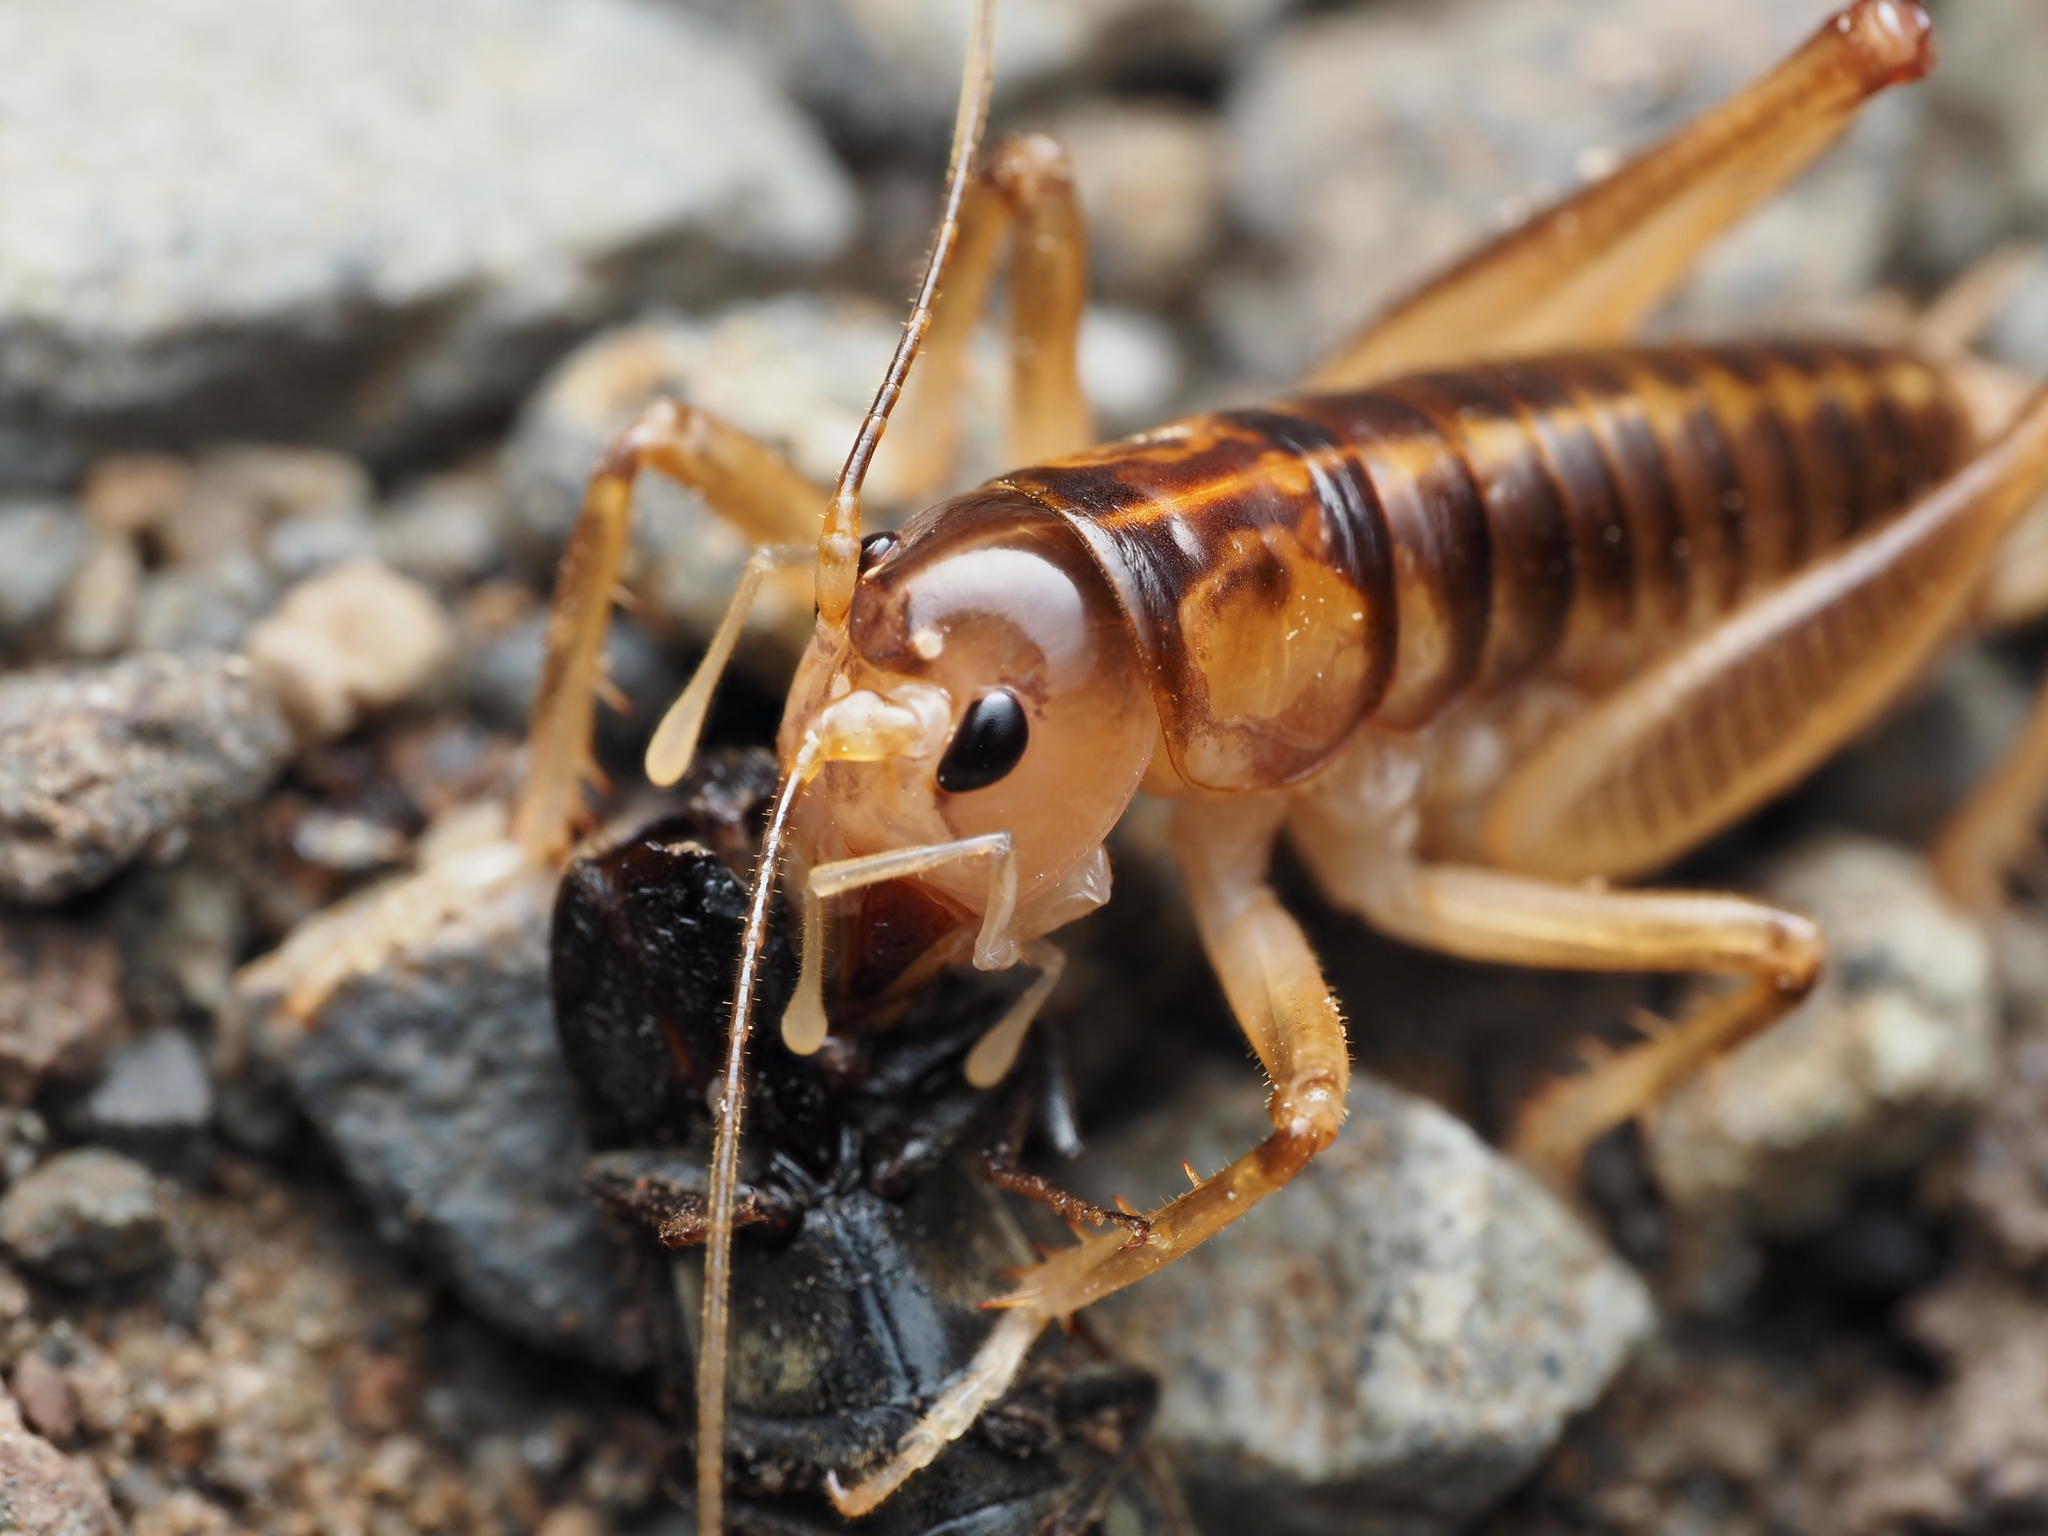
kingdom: Animalia
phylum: Arthropoda
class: Insecta
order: Orthoptera
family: Anostostomatidae
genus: Hemiandrus
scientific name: Hemiandrus pallitarsis
